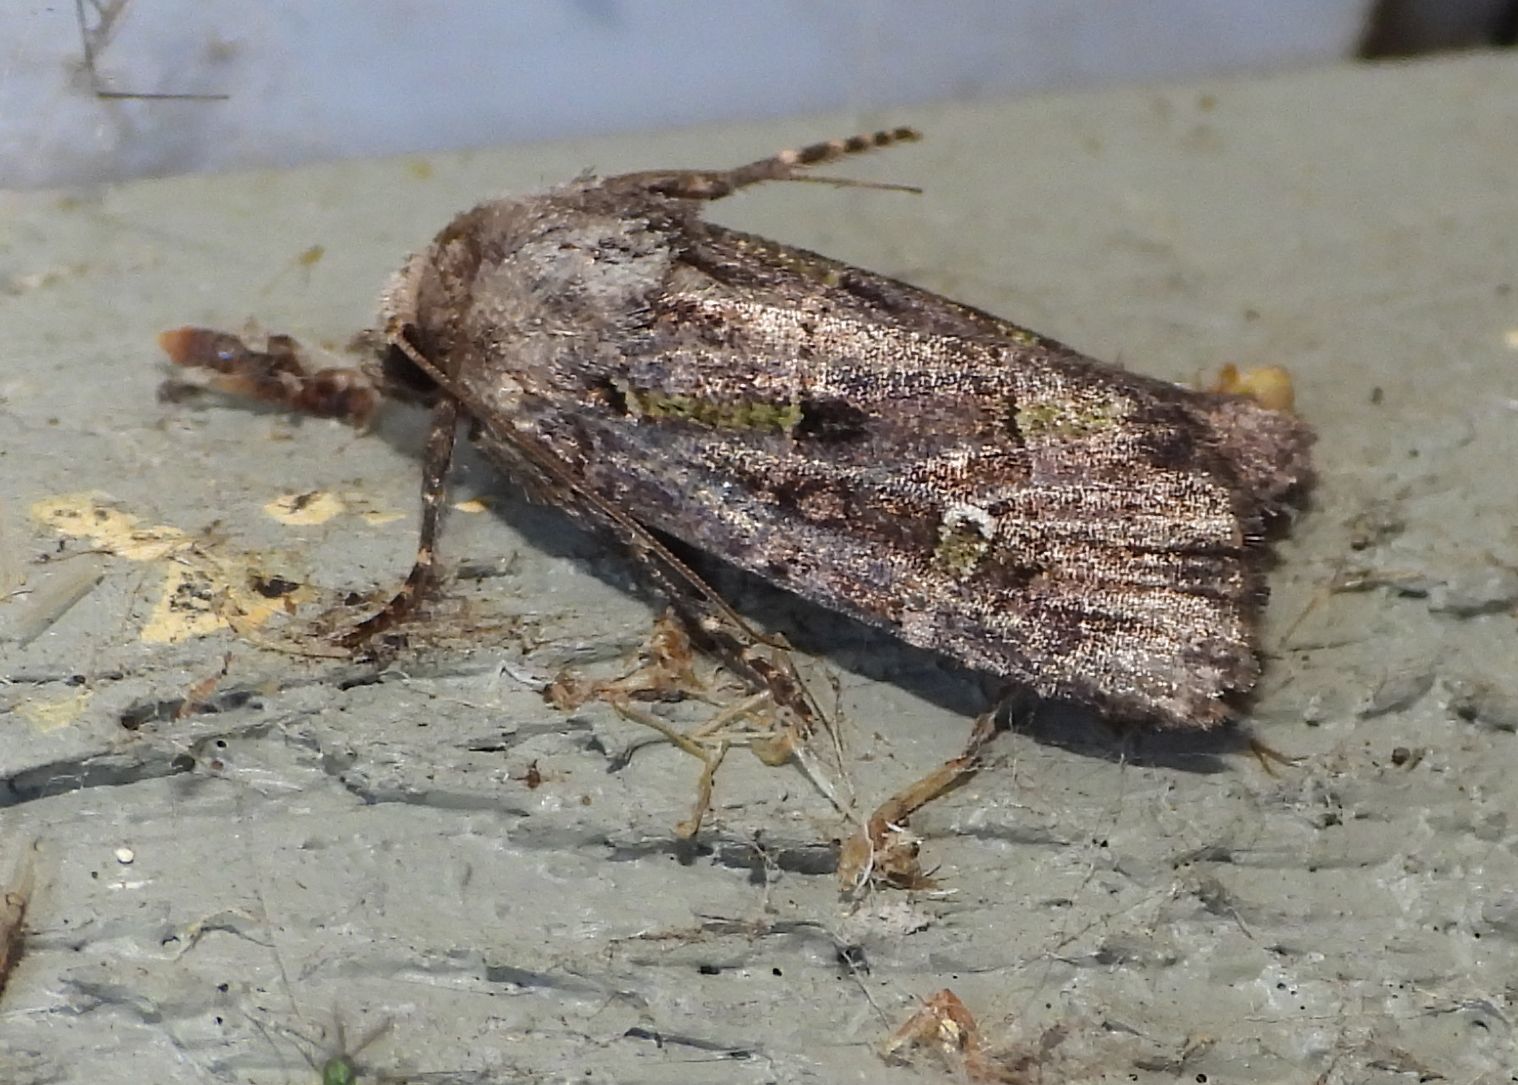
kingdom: Animalia
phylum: Arthropoda
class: Insecta
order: Lepidoptera
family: Noctuidae
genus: Lacinipolia
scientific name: Lacinipolia renigera
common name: Kidney-spotted minor
